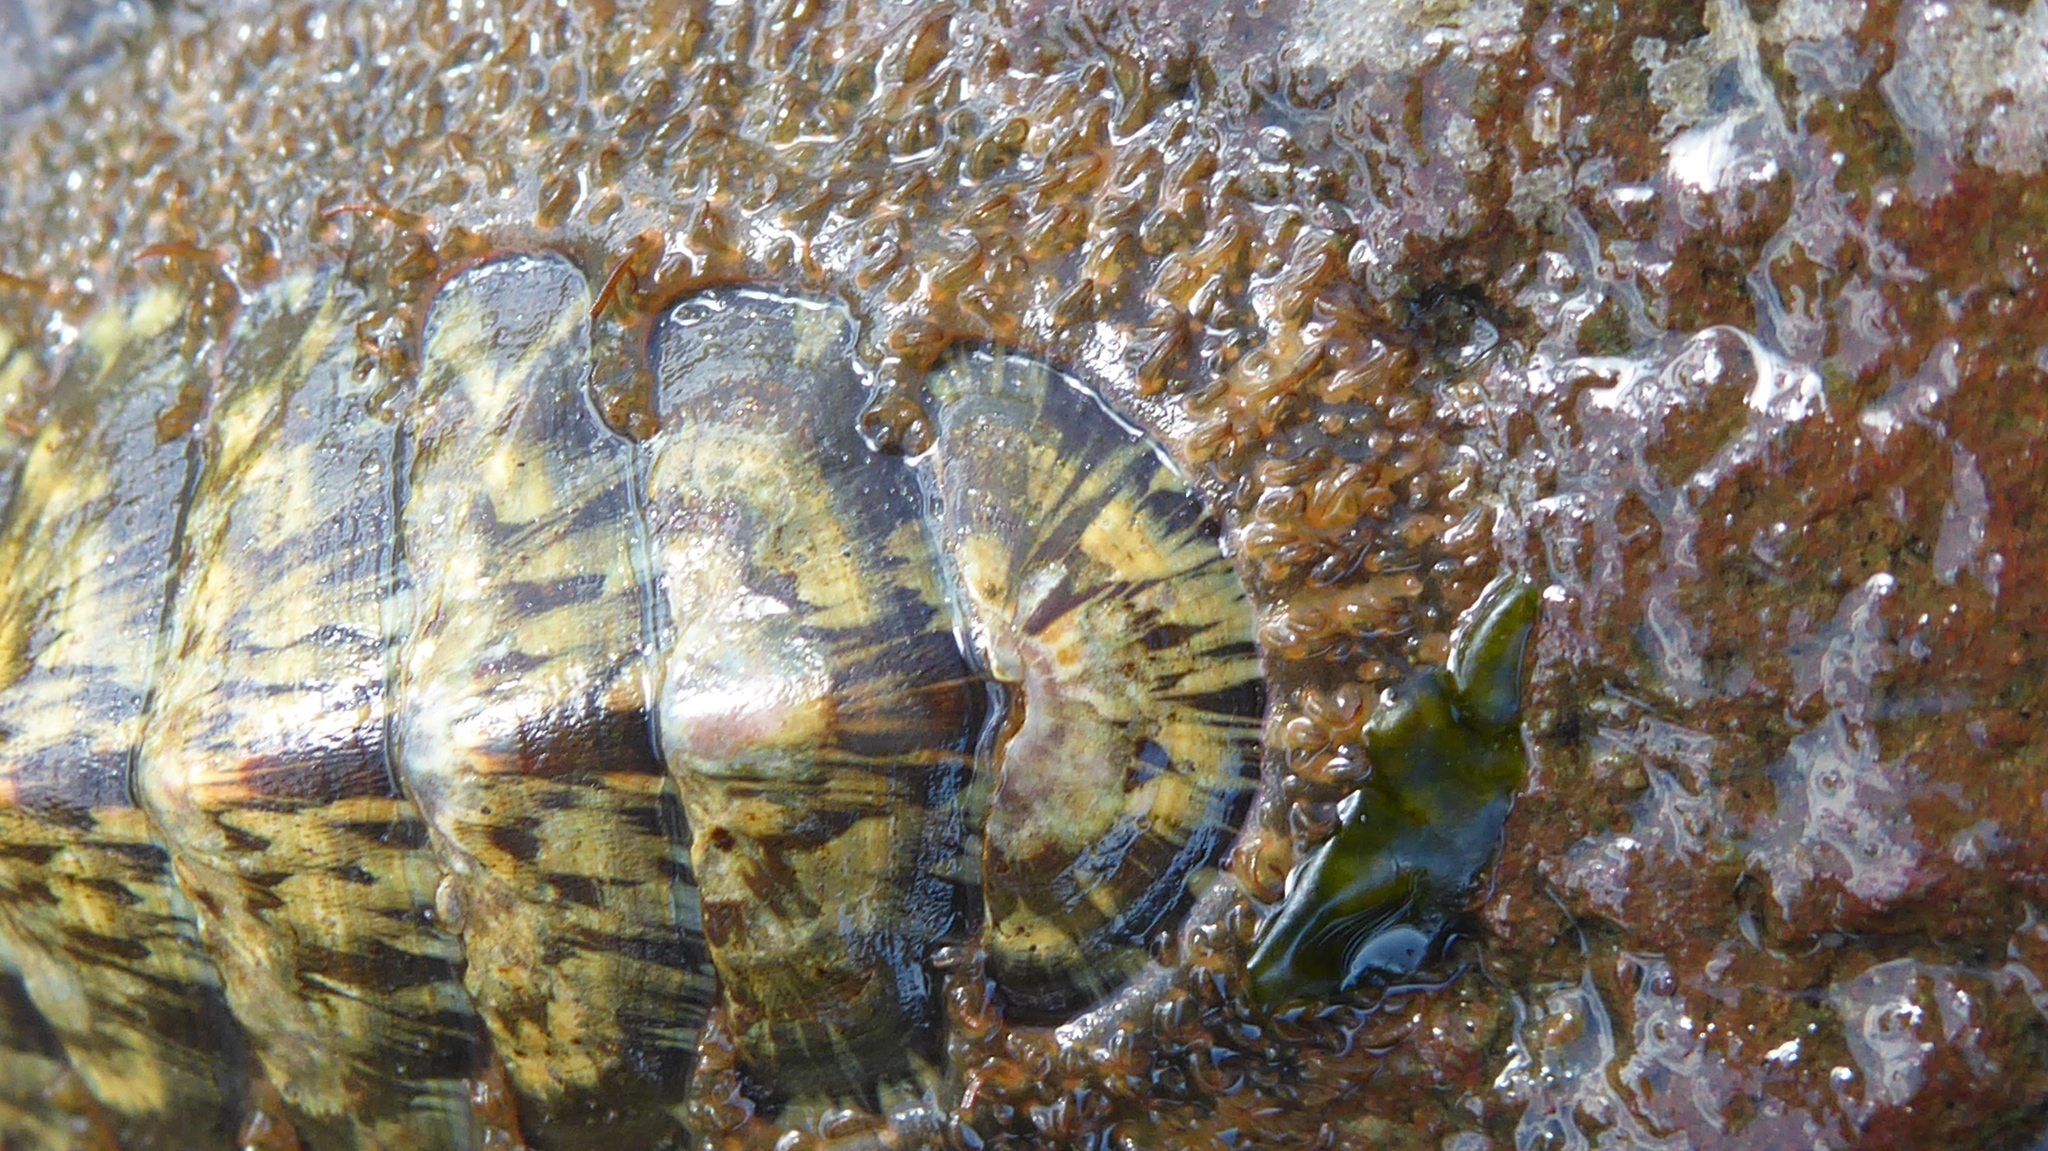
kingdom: Animalia
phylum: Mollusca
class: Polyplacophora
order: Chitonida
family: Mopaliidae
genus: Mopalia
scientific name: Mopalia lignosa
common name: Woody chiton
